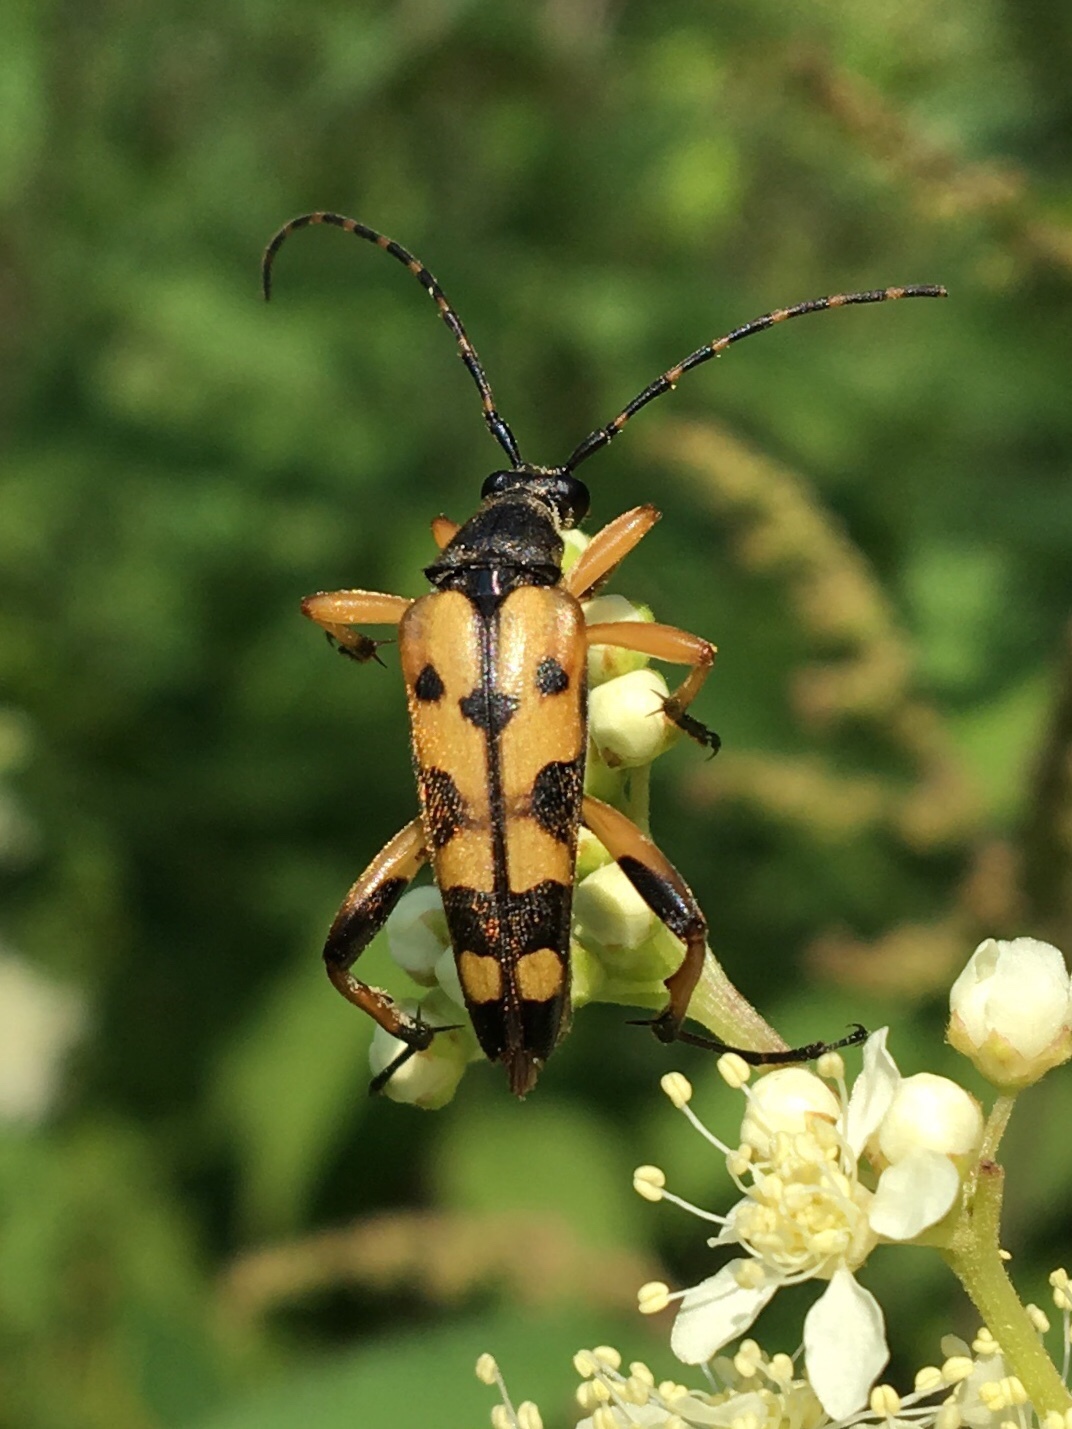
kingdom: Animalia
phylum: Arthropoda
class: Insecta
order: Coleoptera
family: Cerambycidae
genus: Rutpela
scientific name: Rutpela maculata
